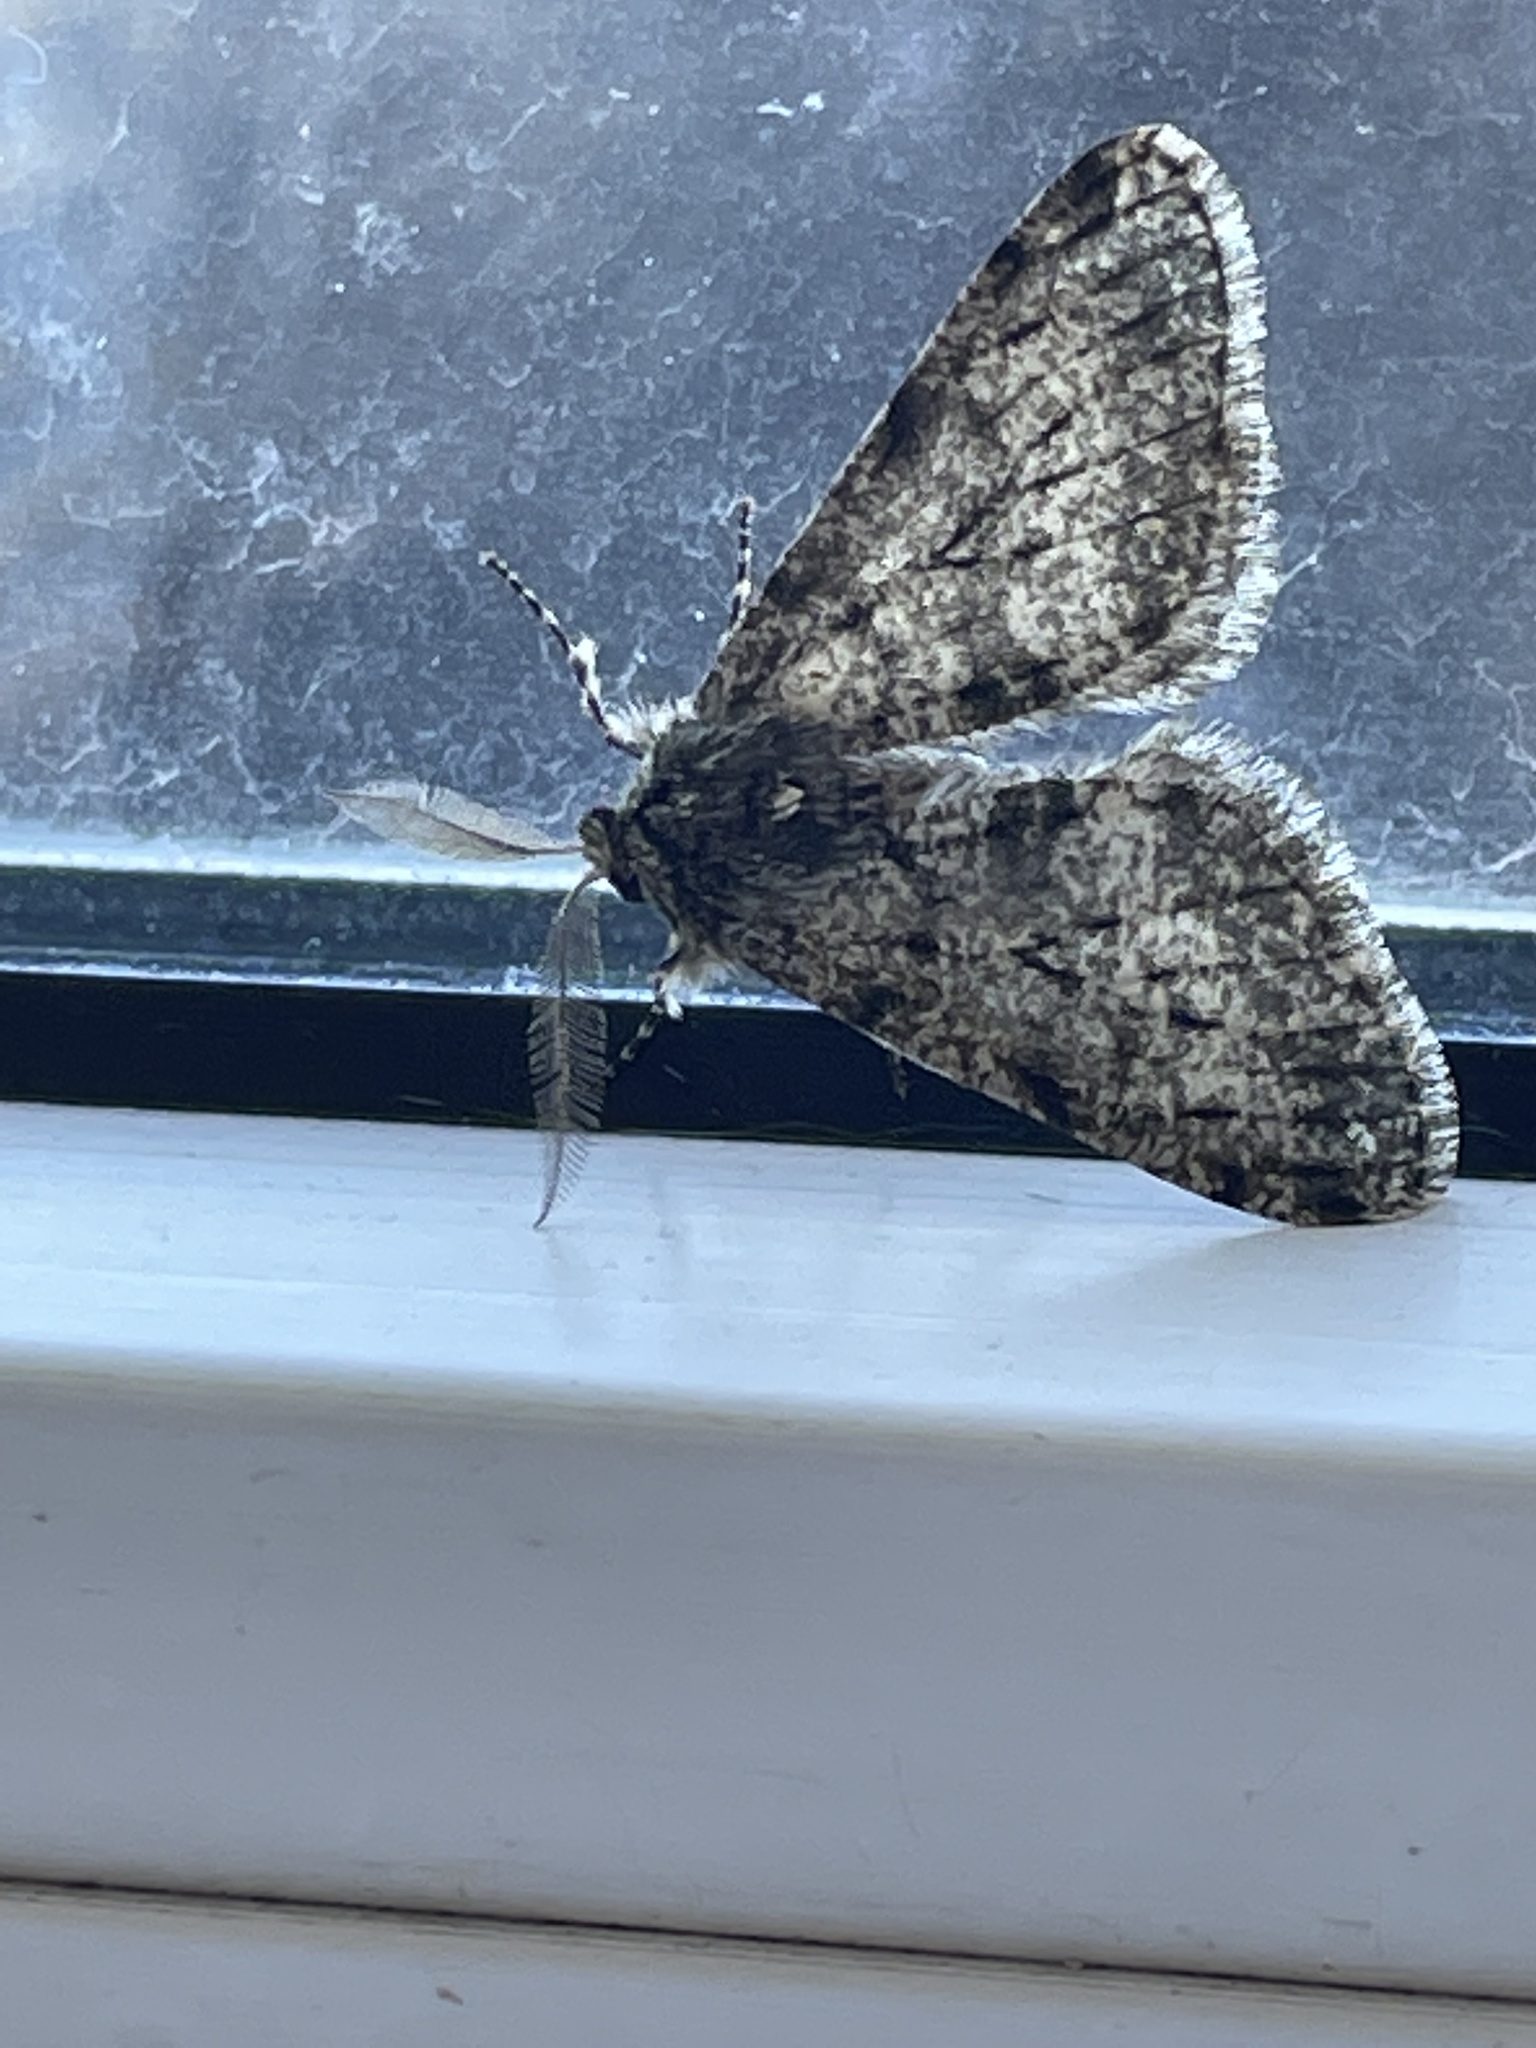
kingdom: Animalia
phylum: Arthropoda
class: Insecta
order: Lepidoptera
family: Geometridae
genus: Phigalia
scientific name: Phigalia pilosaria
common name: Pale brindled beauty
